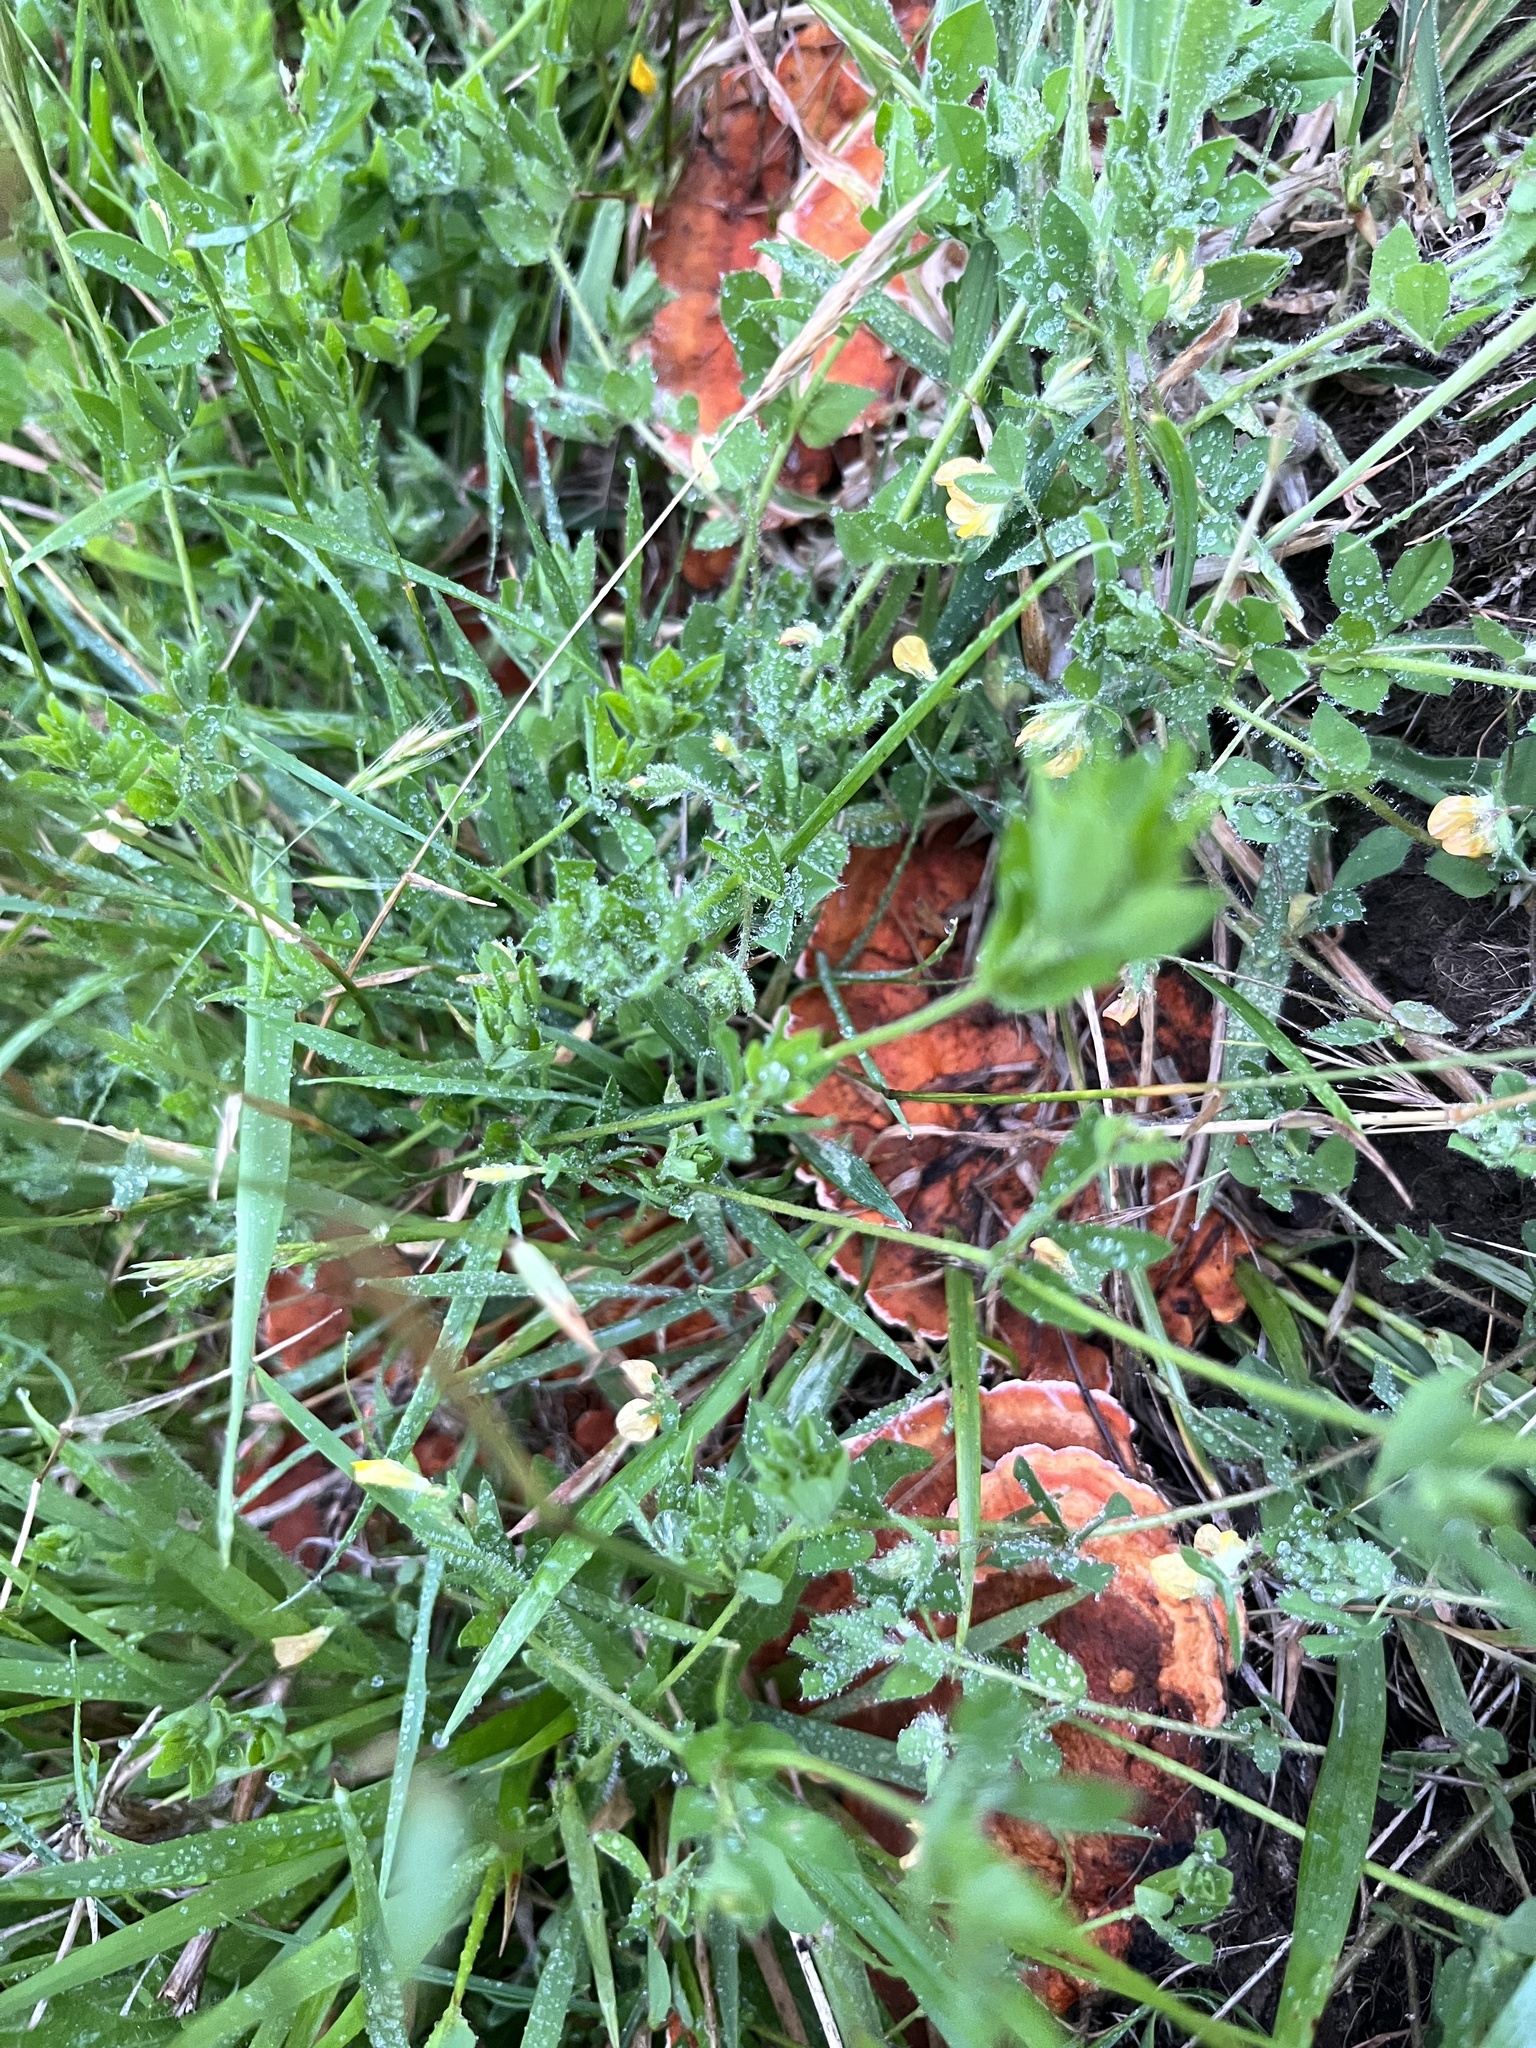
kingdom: Fungi
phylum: Basidiomycota
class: Agaricomycetes
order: Polyporales
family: Polyporaceae
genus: Trametes
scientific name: Trametes coccinea
